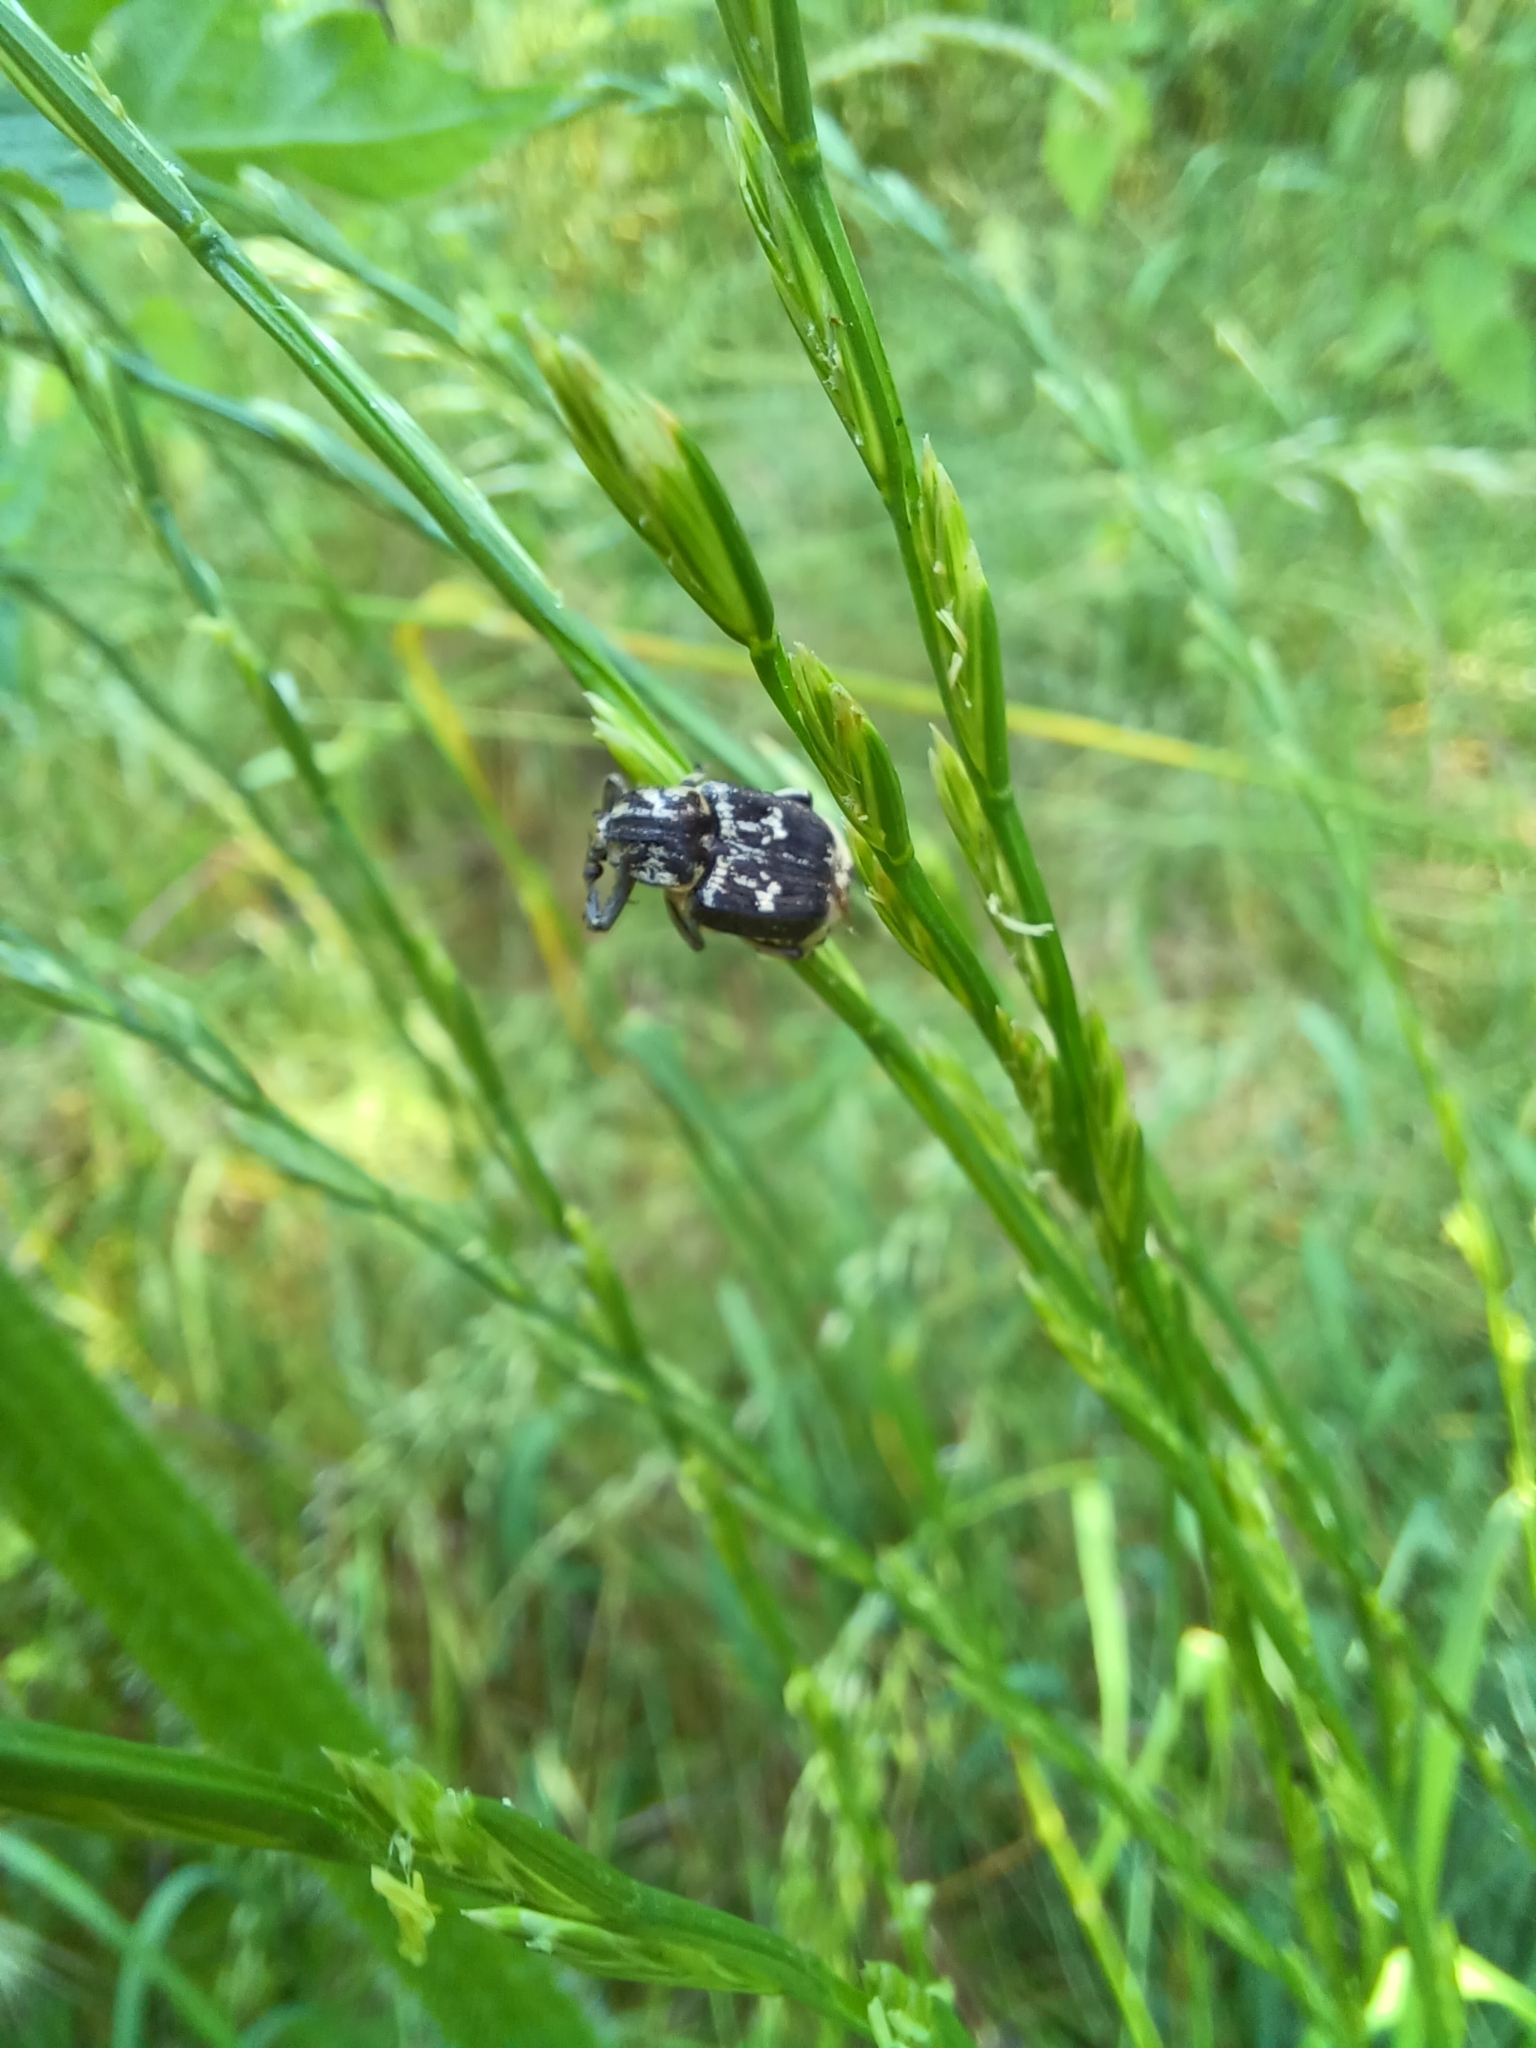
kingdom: Animalia
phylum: Arthropoda
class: Insecta
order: Coleoptera
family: Scarabaeidae
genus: Valgus
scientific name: Valgus hemipterus
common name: Bug flower chafer
